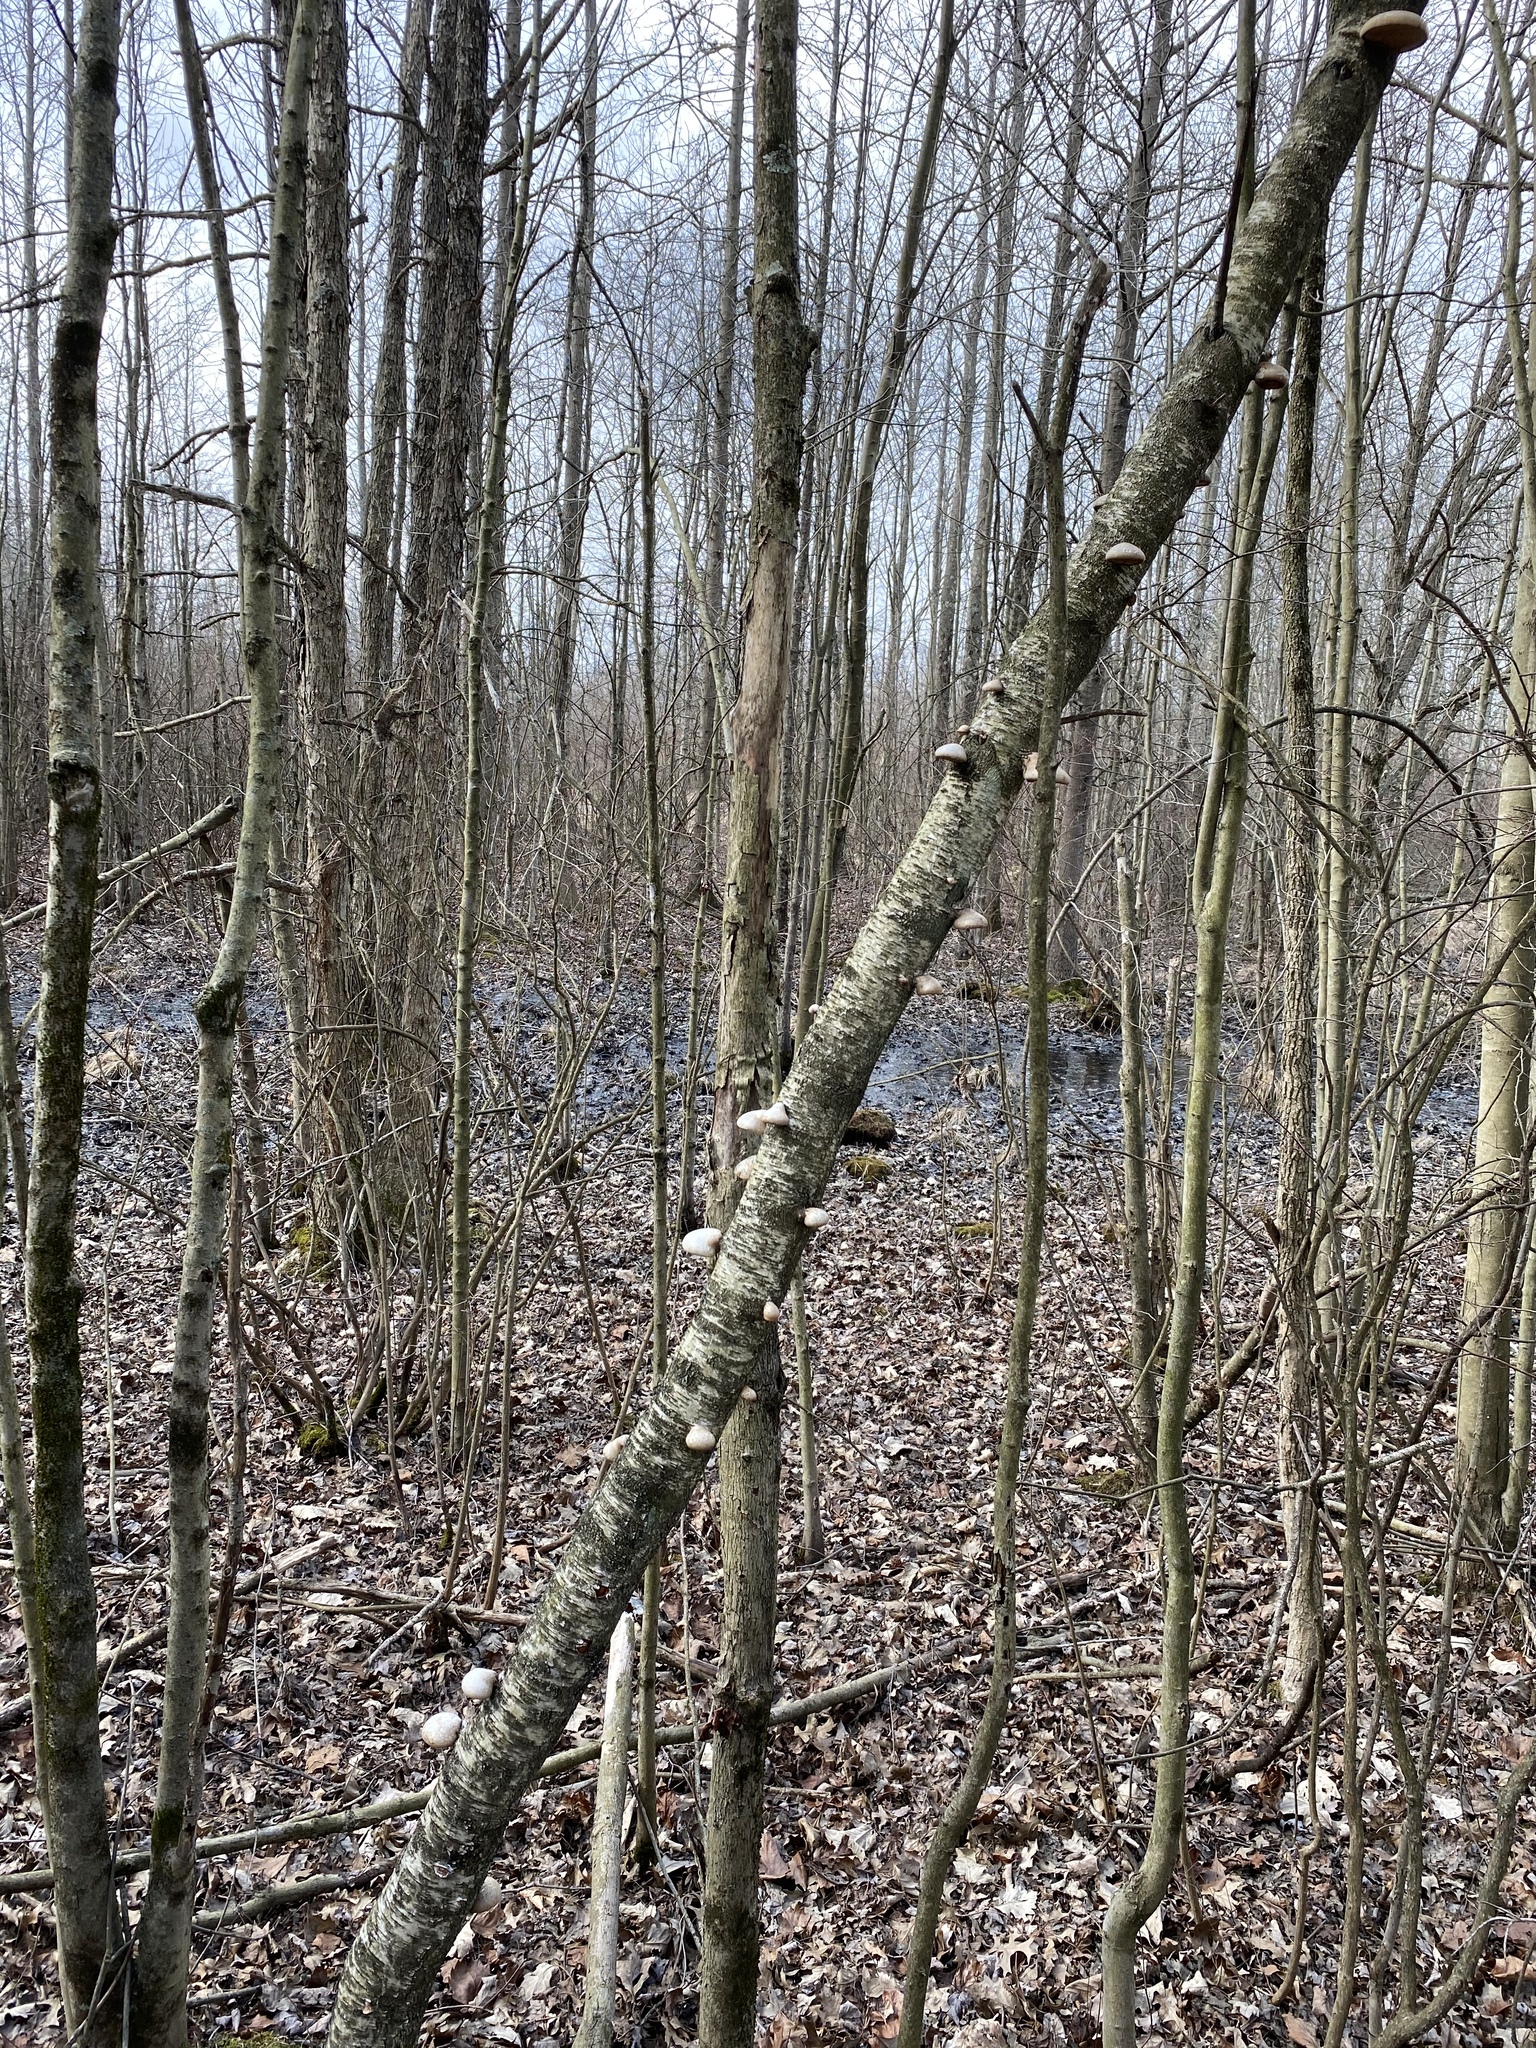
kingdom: Fungi
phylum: Basidiomycota
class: Agaricomycetes
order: Polyporales
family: Fomitopsidaceae
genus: Fomitopsis
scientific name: Fomitopsis betulina
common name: Birch polypore
